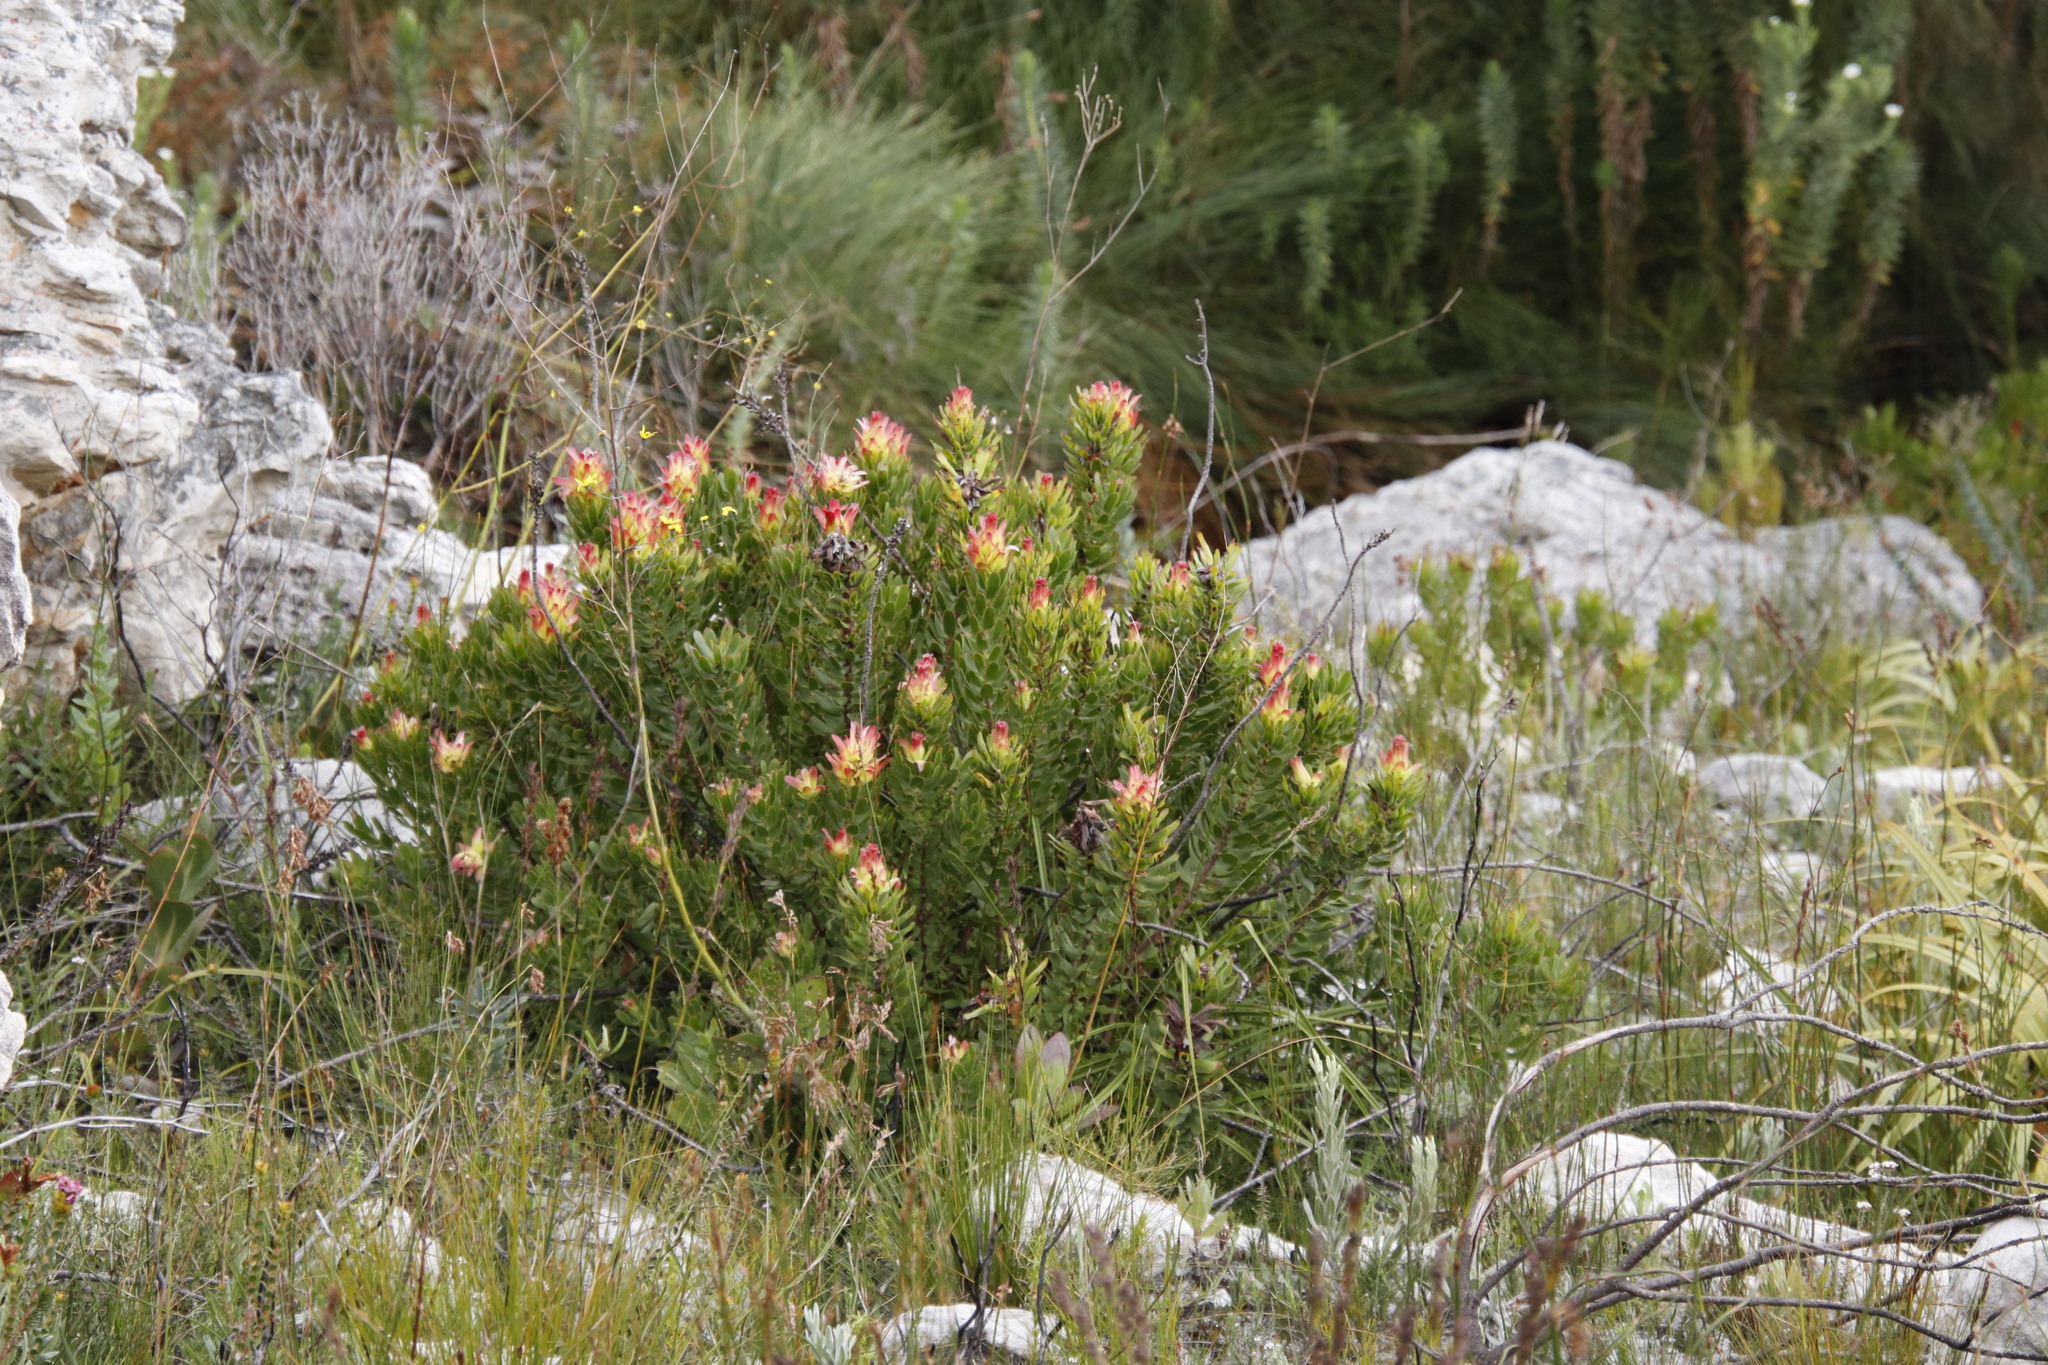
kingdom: Plantae
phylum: Tracheophyta
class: Magnoliopsida
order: Proteales
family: Proteaceae
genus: Mimetes
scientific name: Mimetes cucullatus
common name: Common pagoda
